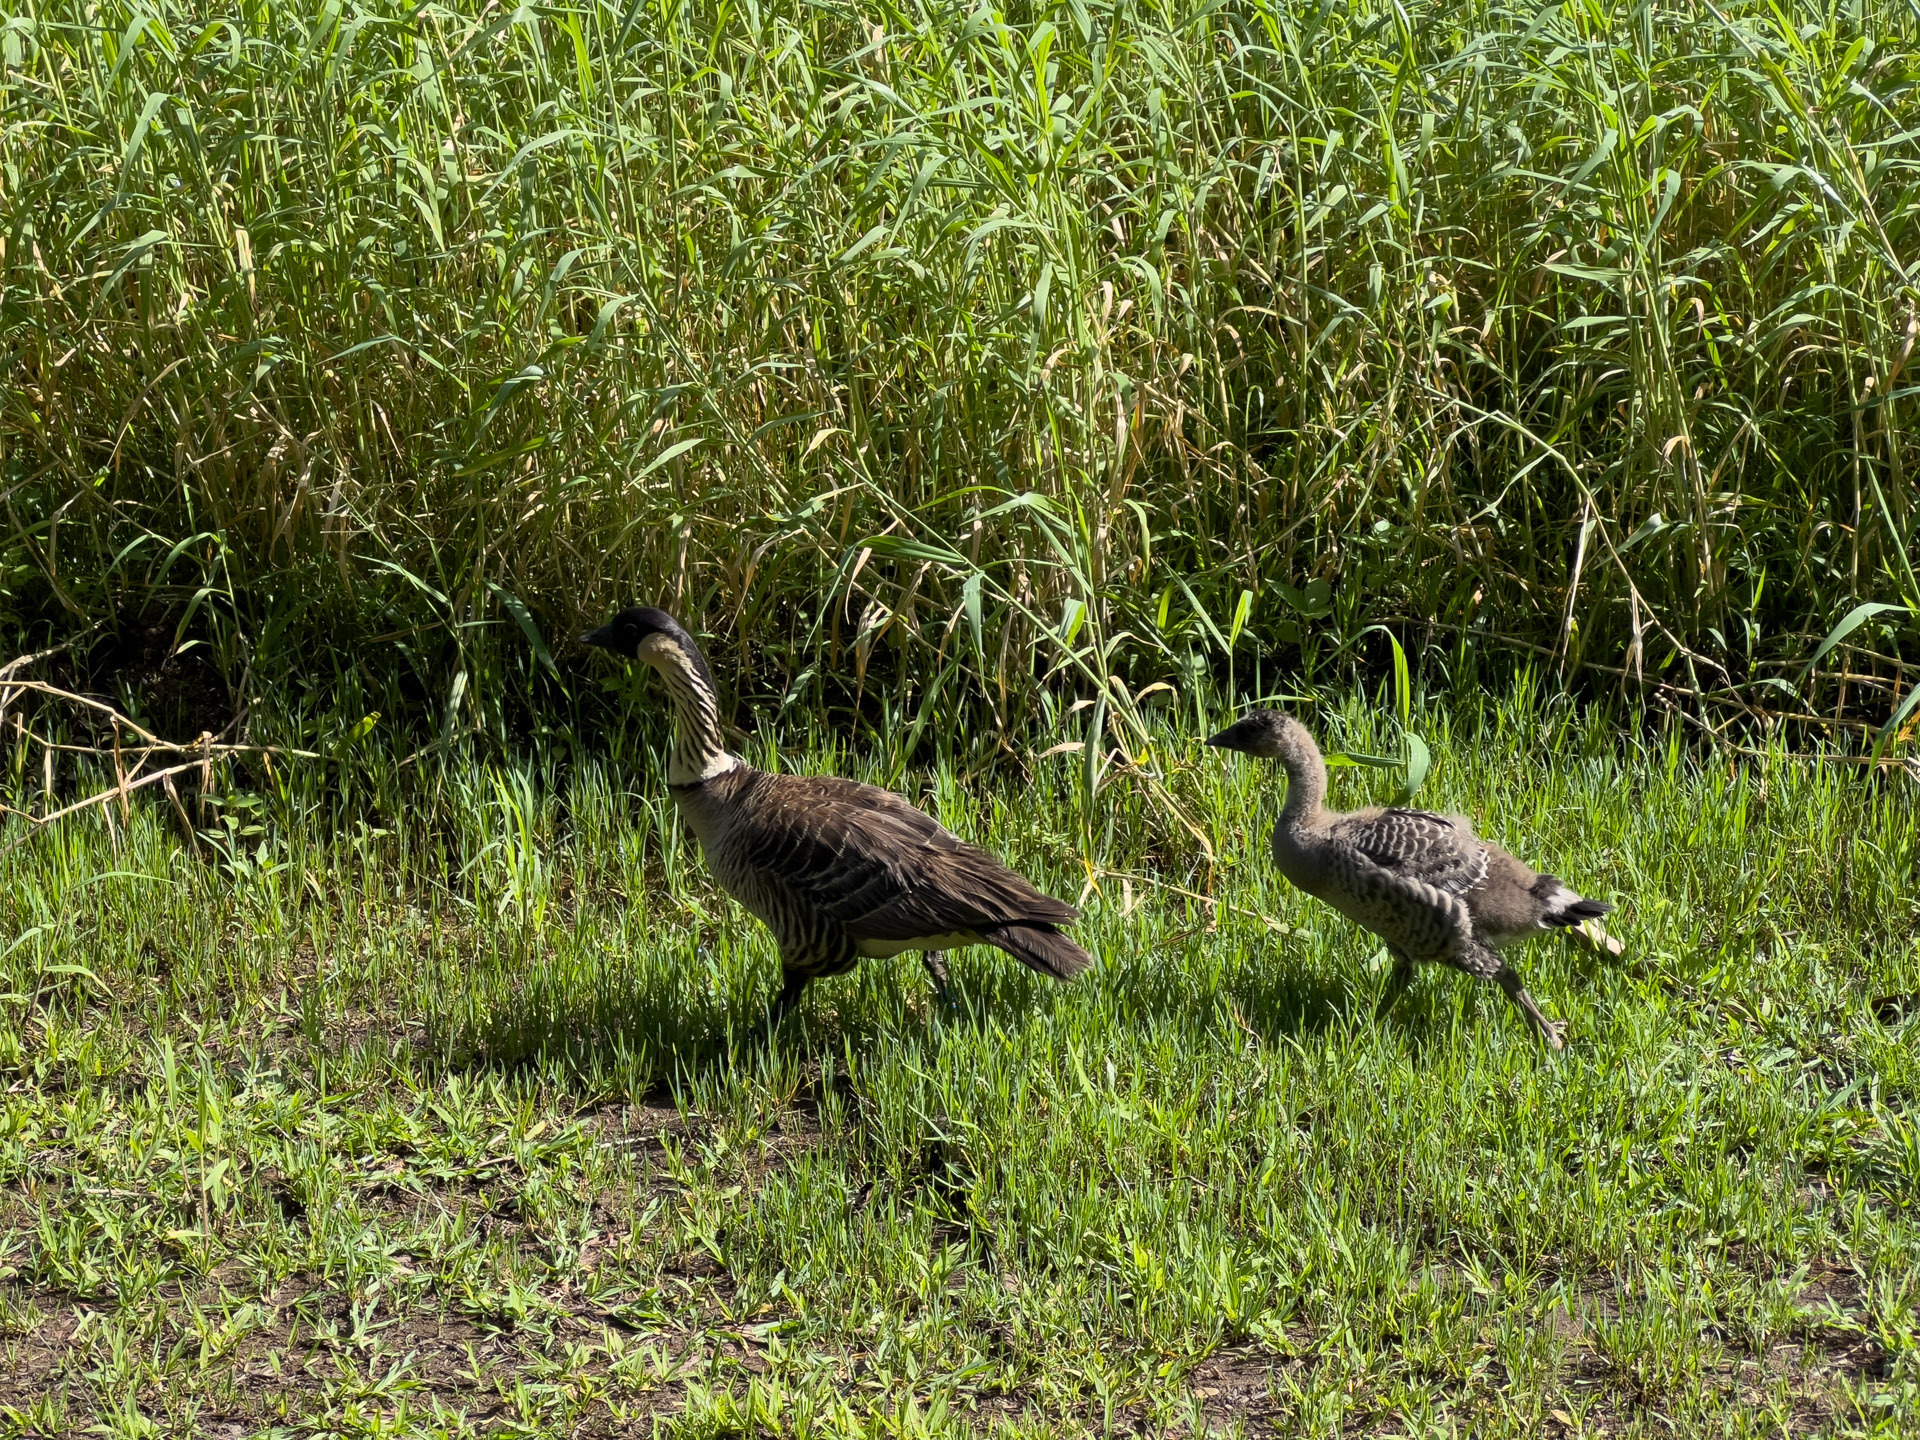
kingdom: Animalia
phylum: Chordata
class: Aves
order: Anseriformes
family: Anatidae
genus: Branta
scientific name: Branta sandvicensis
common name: Nene
